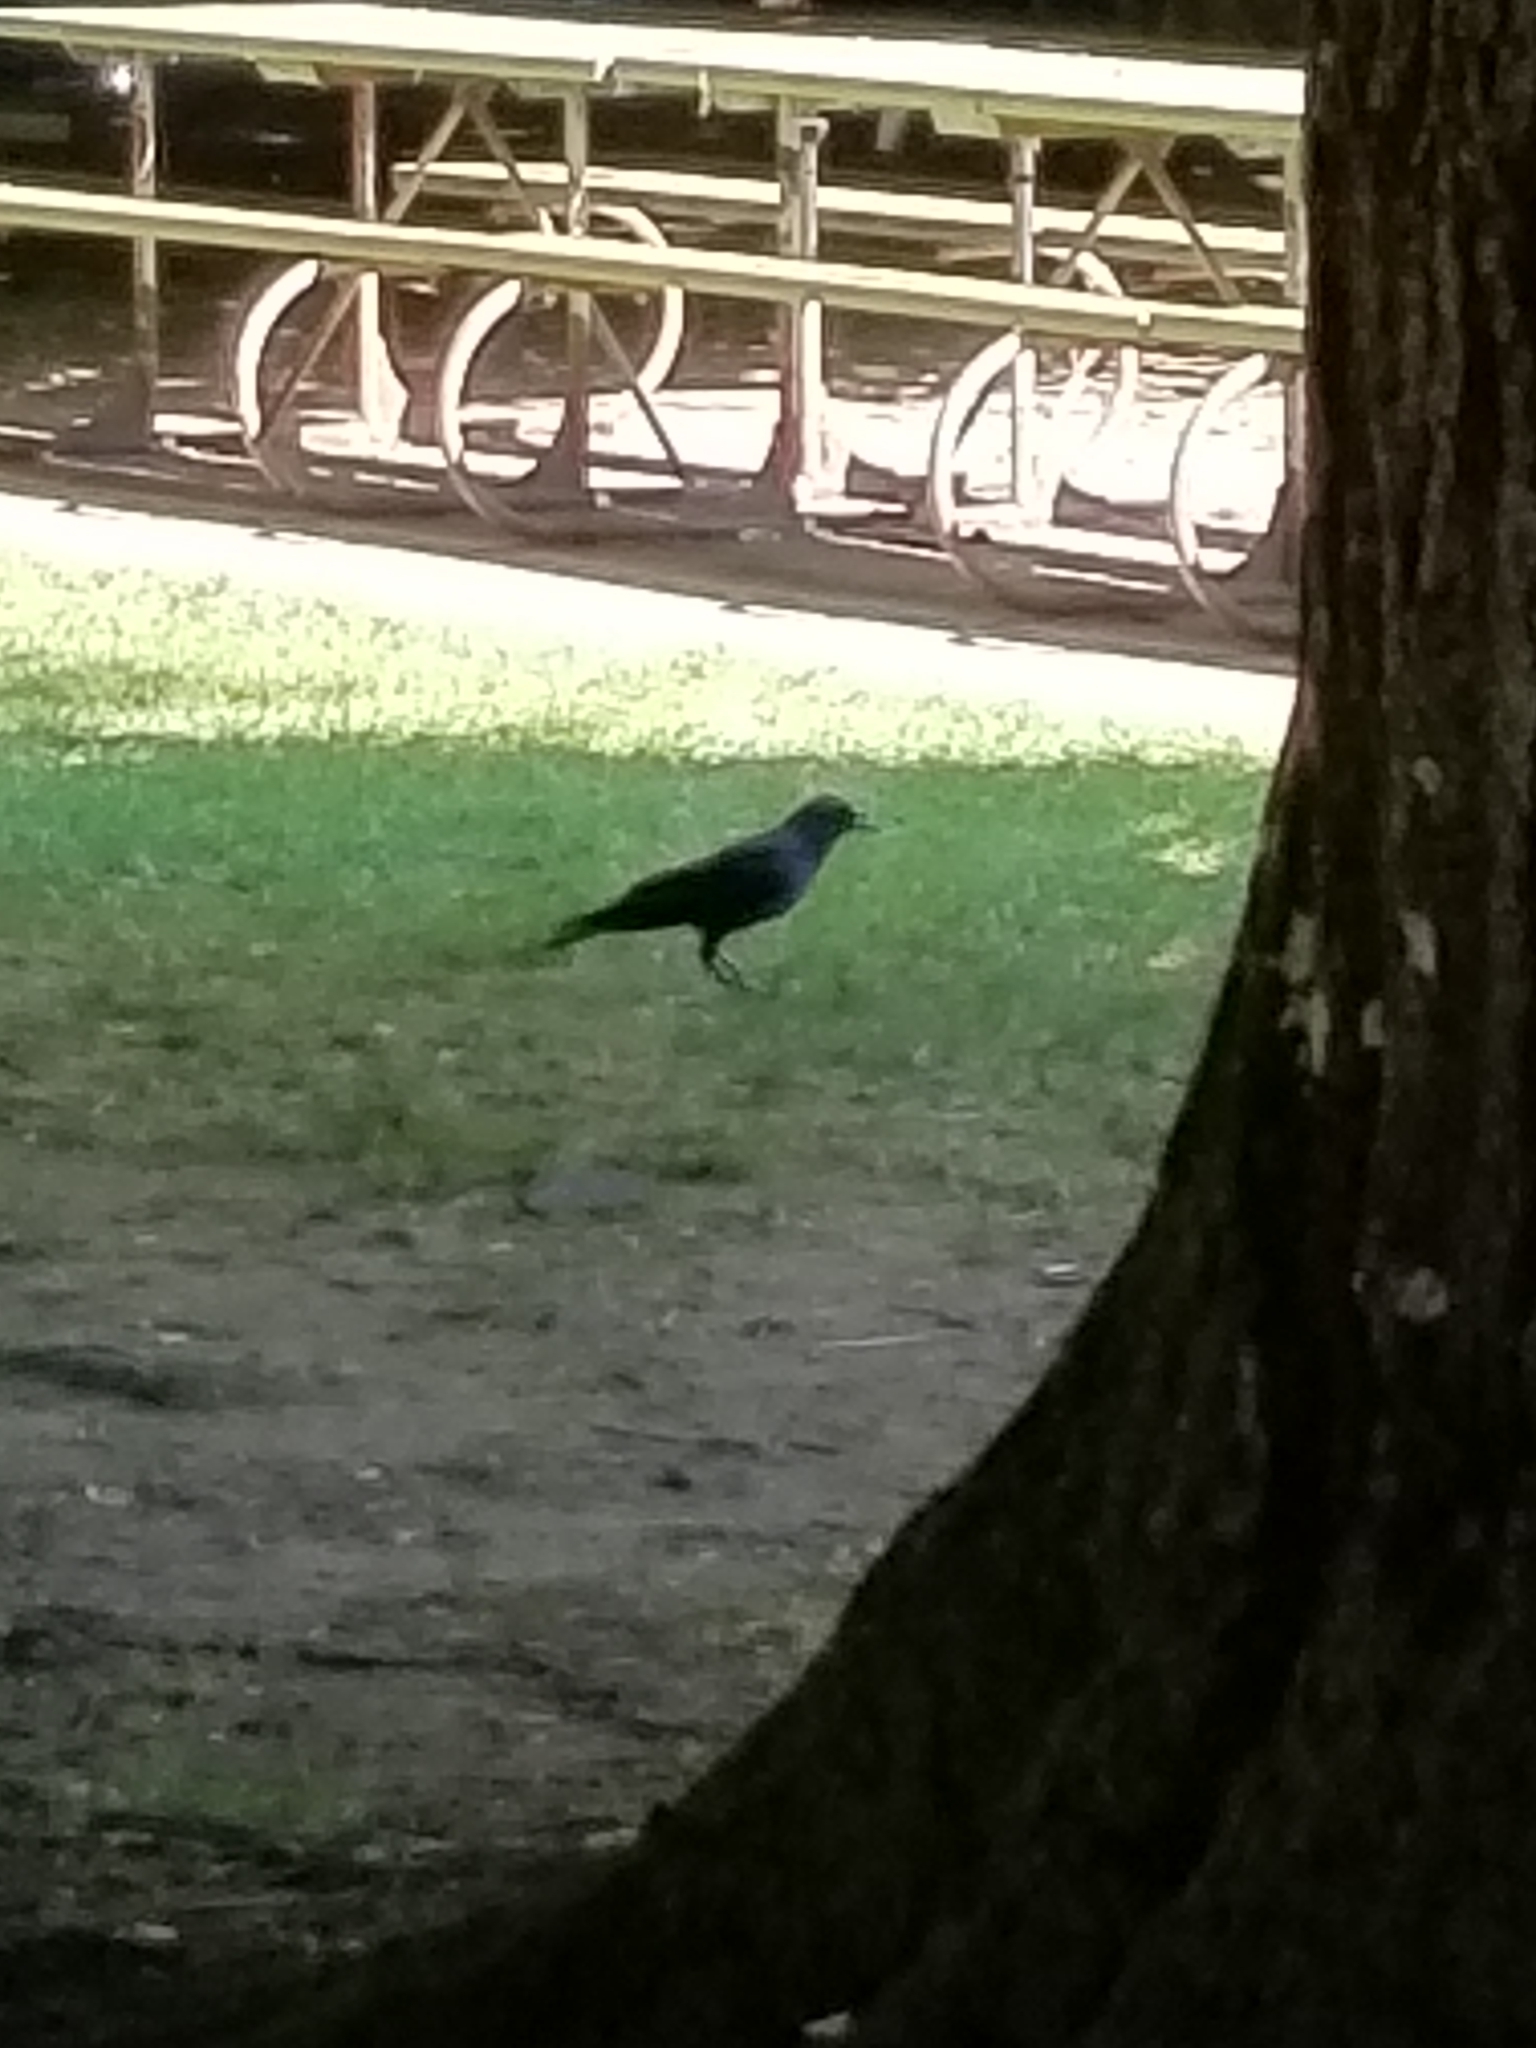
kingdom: Animalia
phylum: Chordata
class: Aves
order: Passeriformes
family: Corvidae
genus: Corvus
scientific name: Corvus brachyrhynchos
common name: American crow
